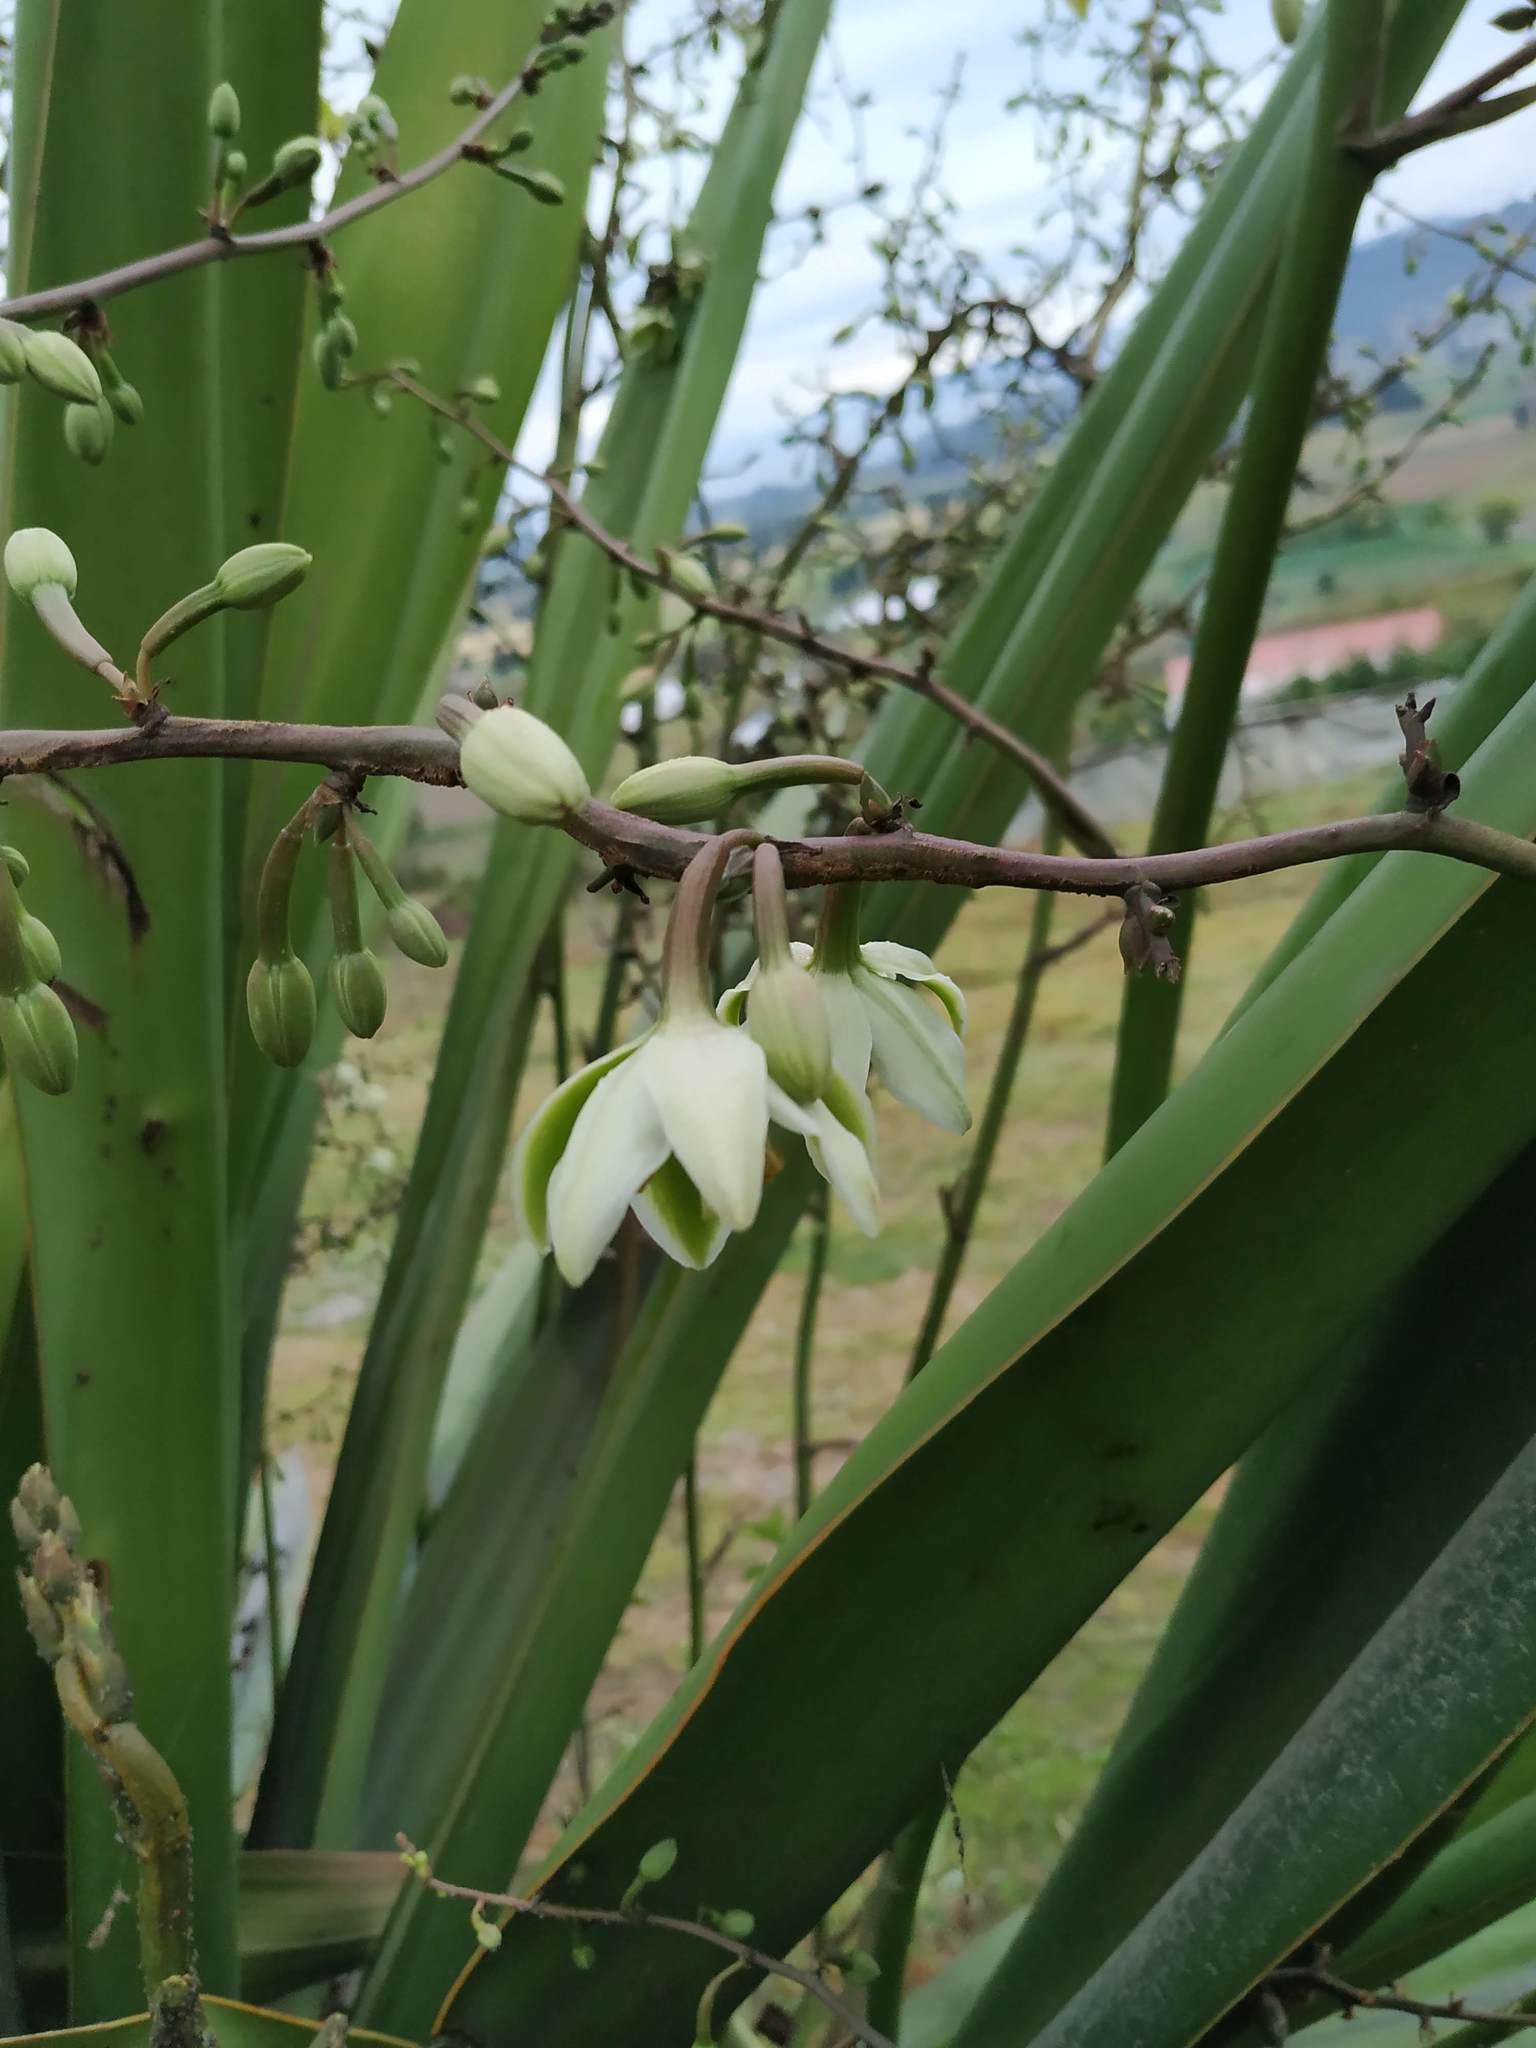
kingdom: Plantae
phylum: Tracheophyta
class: Liliopsida
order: Asparagales
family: Asparagaceae
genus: Furcraea
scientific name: Furcraea cabuya
